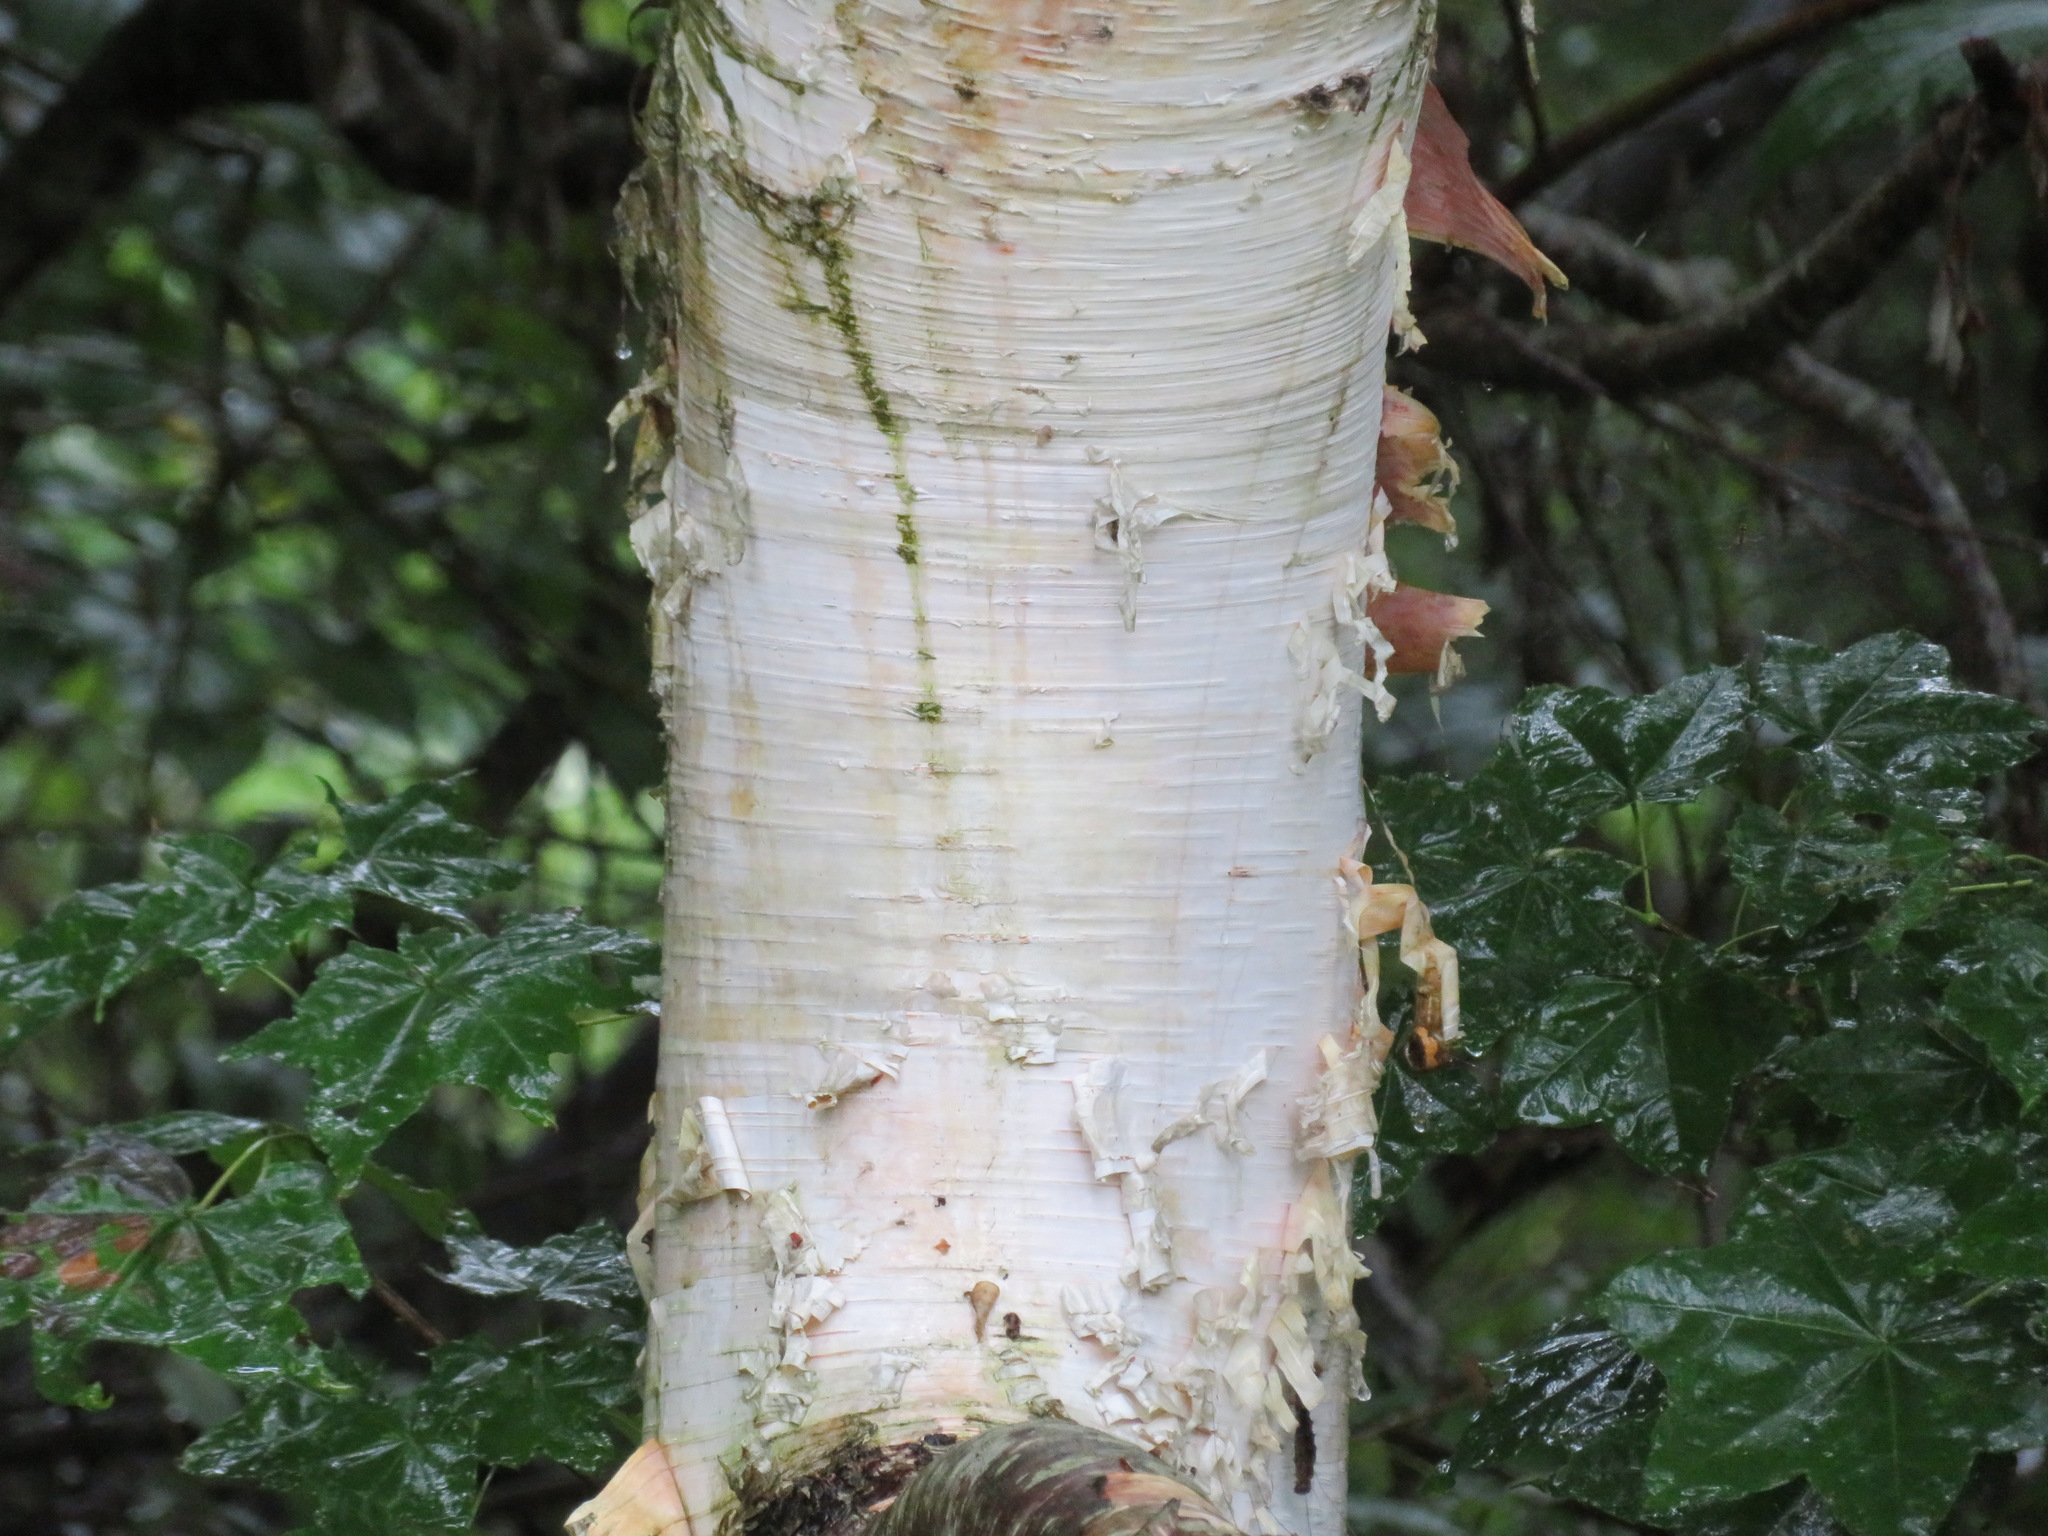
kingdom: Plantae
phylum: Tracheophyta
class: Magnoliopsida
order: Fagales
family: Betulaceae
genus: Betula
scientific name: Betula pendula
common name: Silver birch
